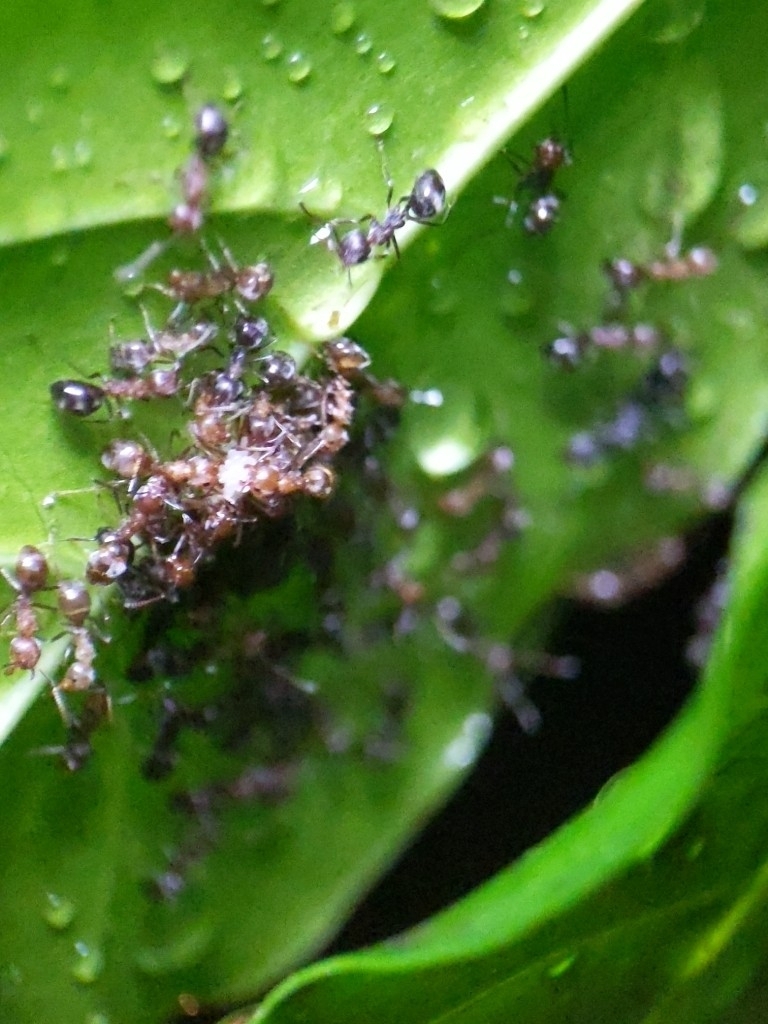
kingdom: Animalia
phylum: Arthropoda
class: Insecta
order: Hymenoptera
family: Formicidae
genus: Dolichoderus
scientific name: Dolichoderus thoracicus
